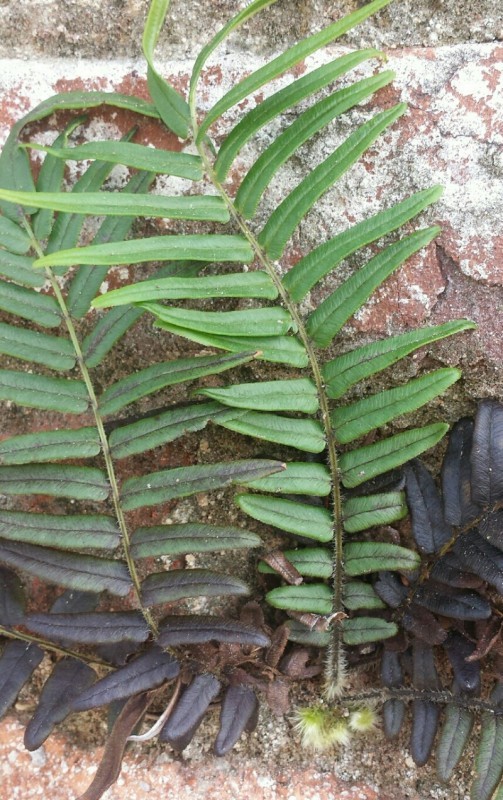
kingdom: Plantae
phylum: Tracheophyta
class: Polypodiopsida
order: Polypodiales
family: Pteridaceae
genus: Pteris
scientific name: Pteris vittata
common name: Ladder brake
